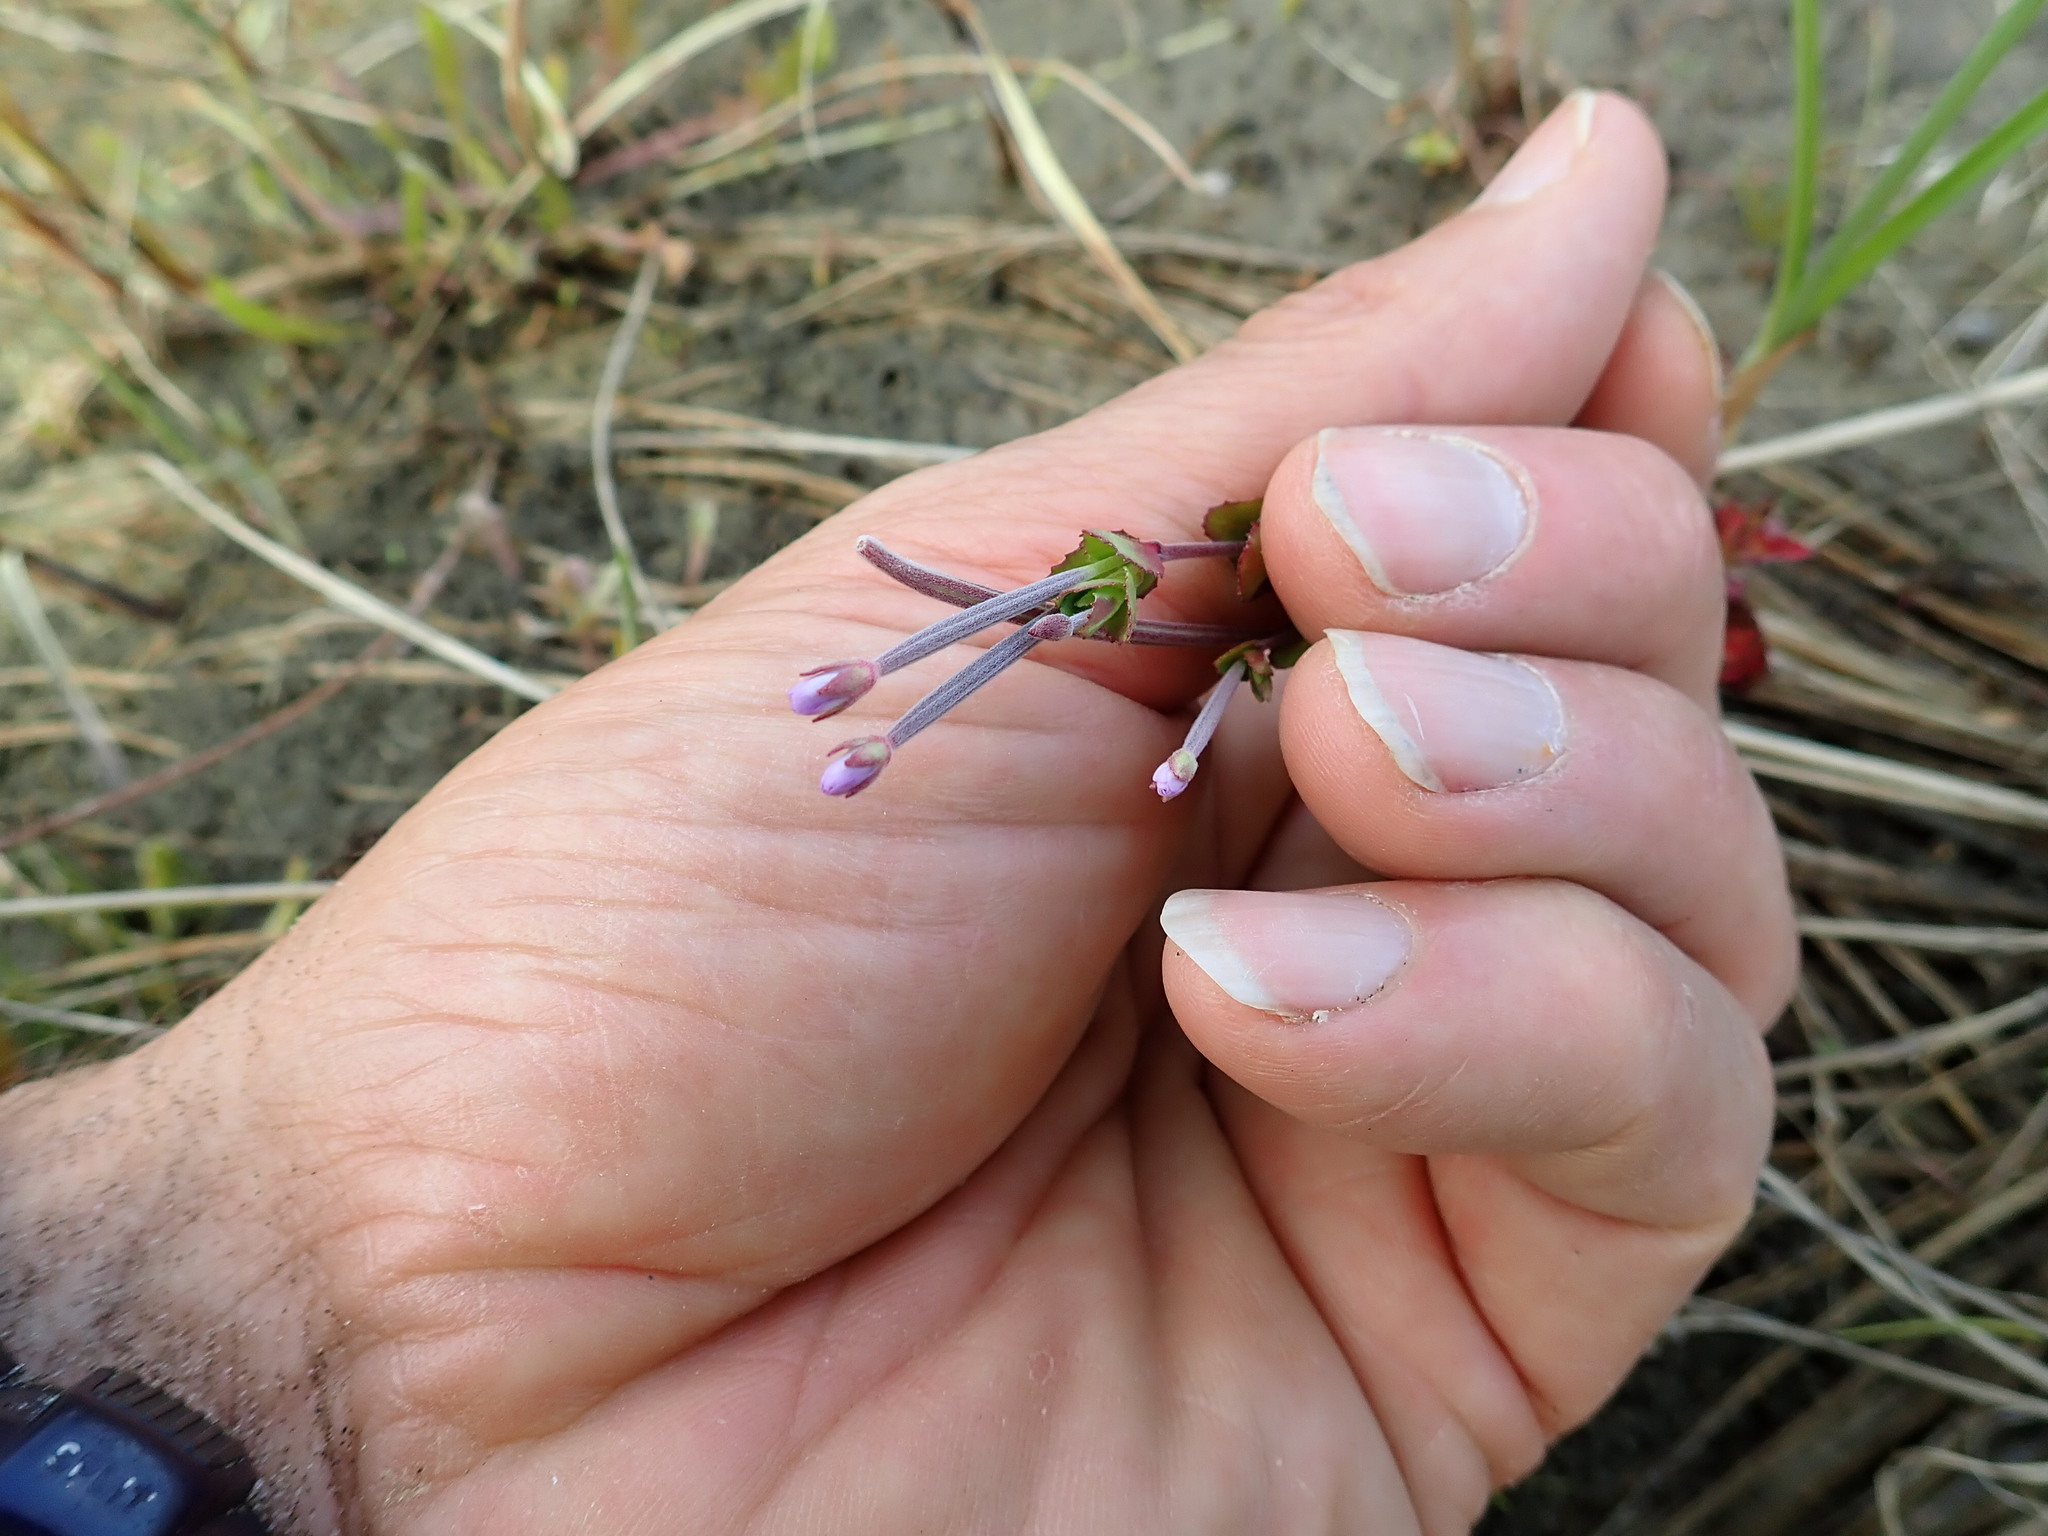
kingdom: Plantae
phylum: Tracheophyta
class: Magnoliopsida
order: Myrtales
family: Onagraceae
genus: Epilobium
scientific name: Epilobium billardiereanum
